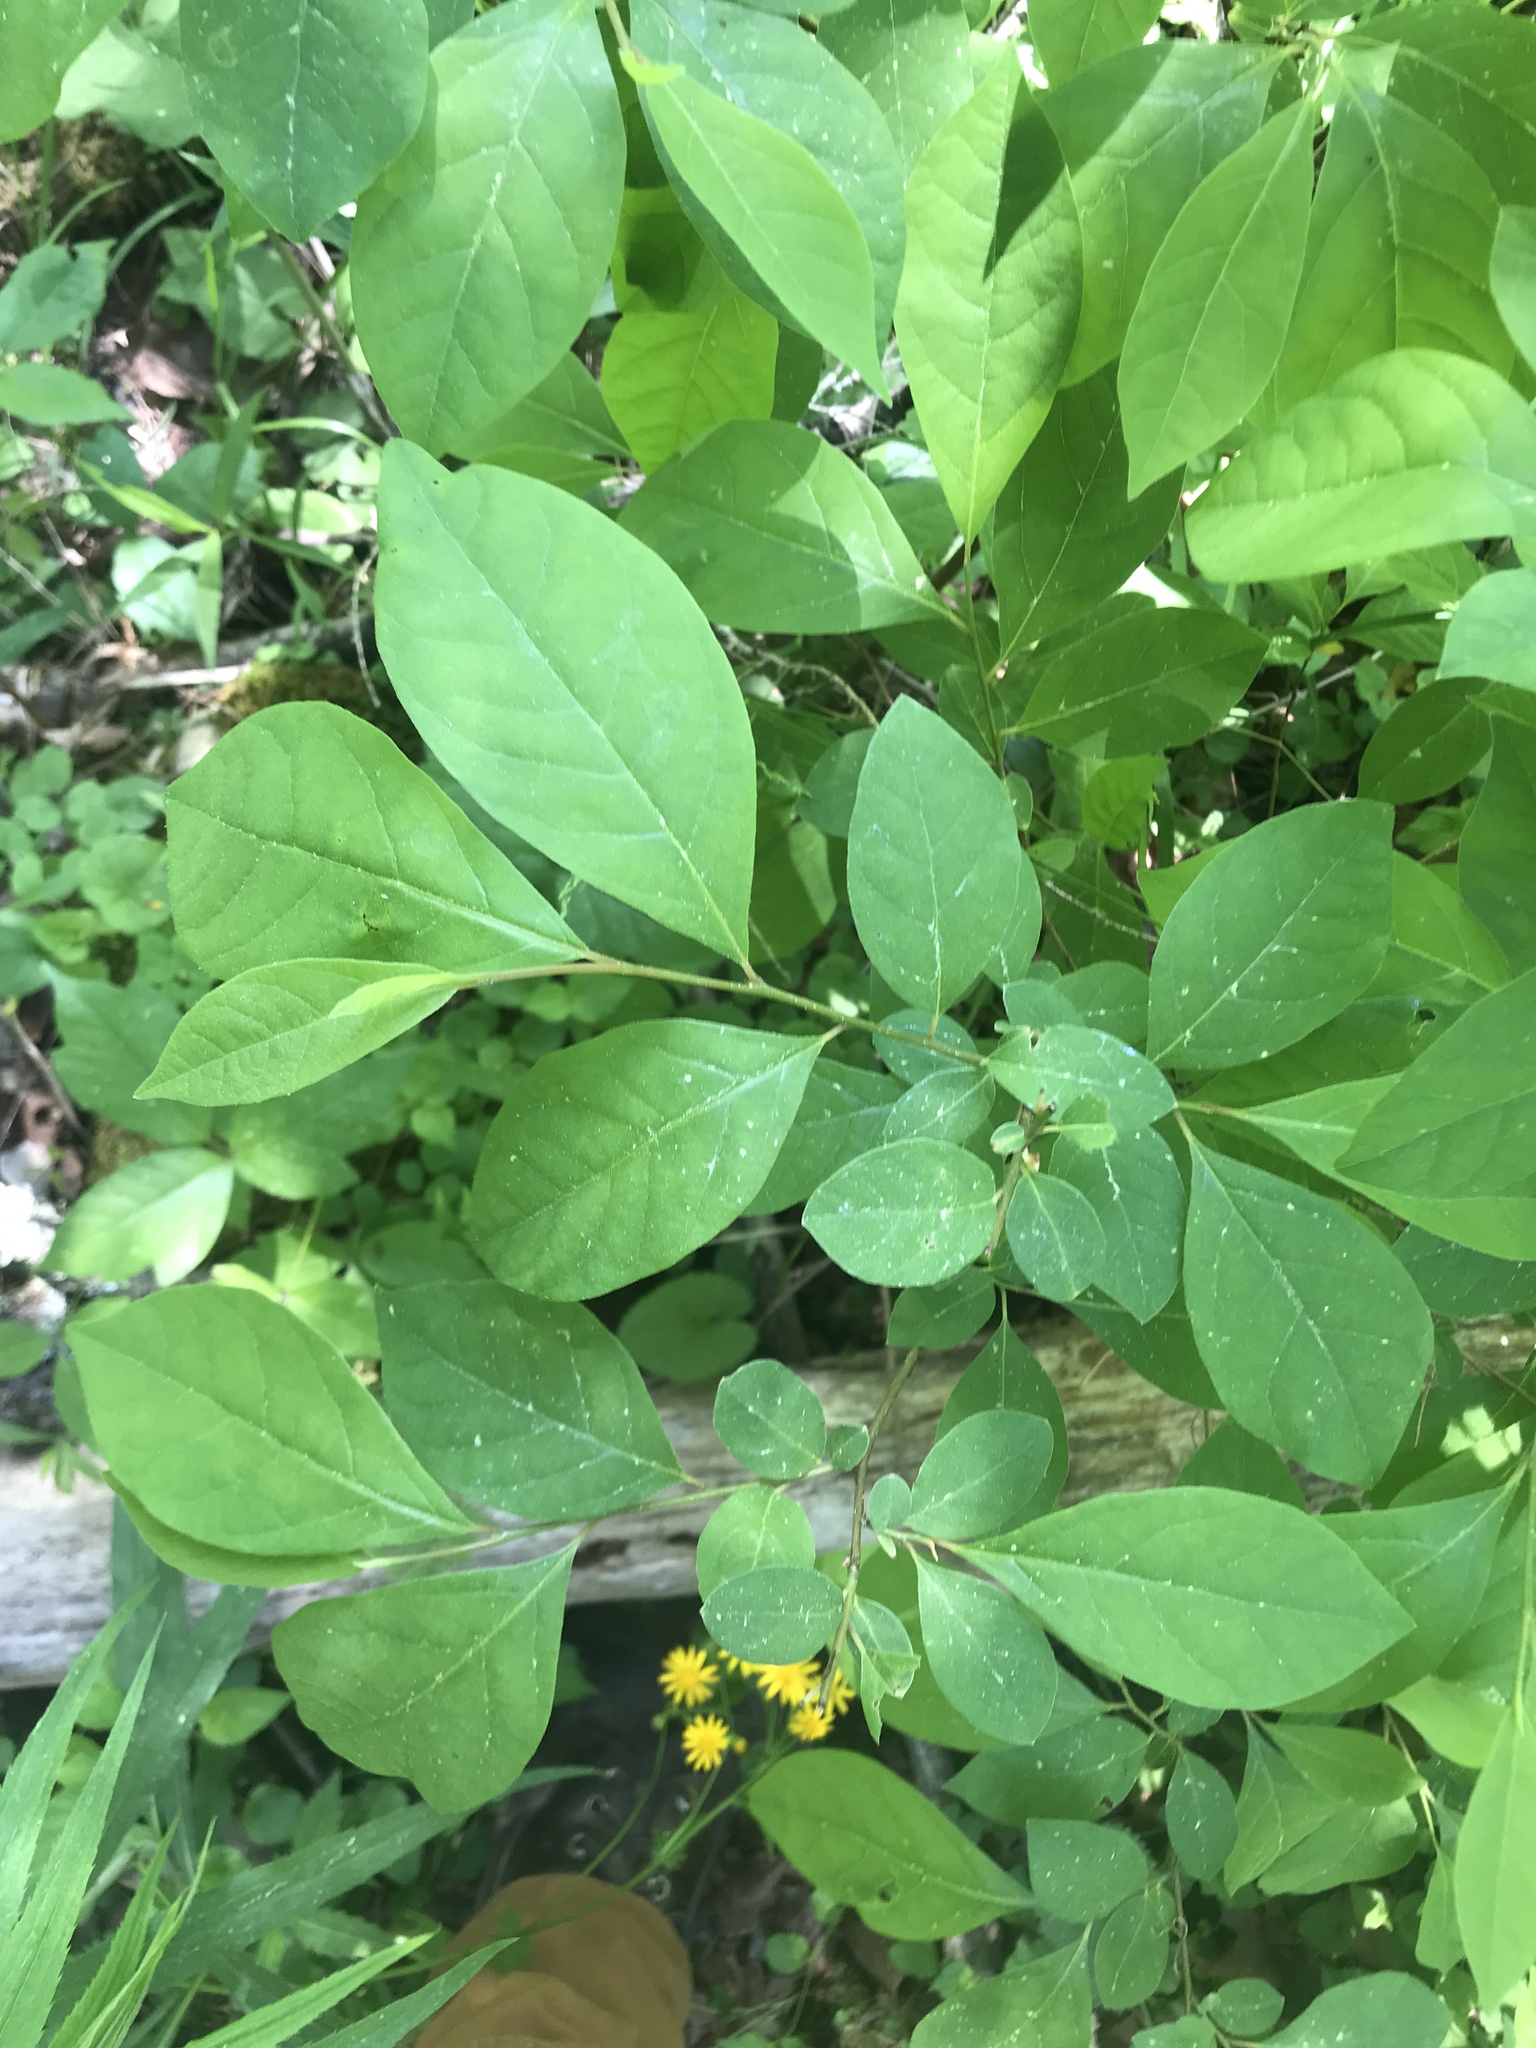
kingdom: Plantae
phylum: Tracheophyta
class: Magnoliopsida
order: Laurales
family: Lauraceae
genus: Lindera
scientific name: Lindera benzoin
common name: Spicebush
